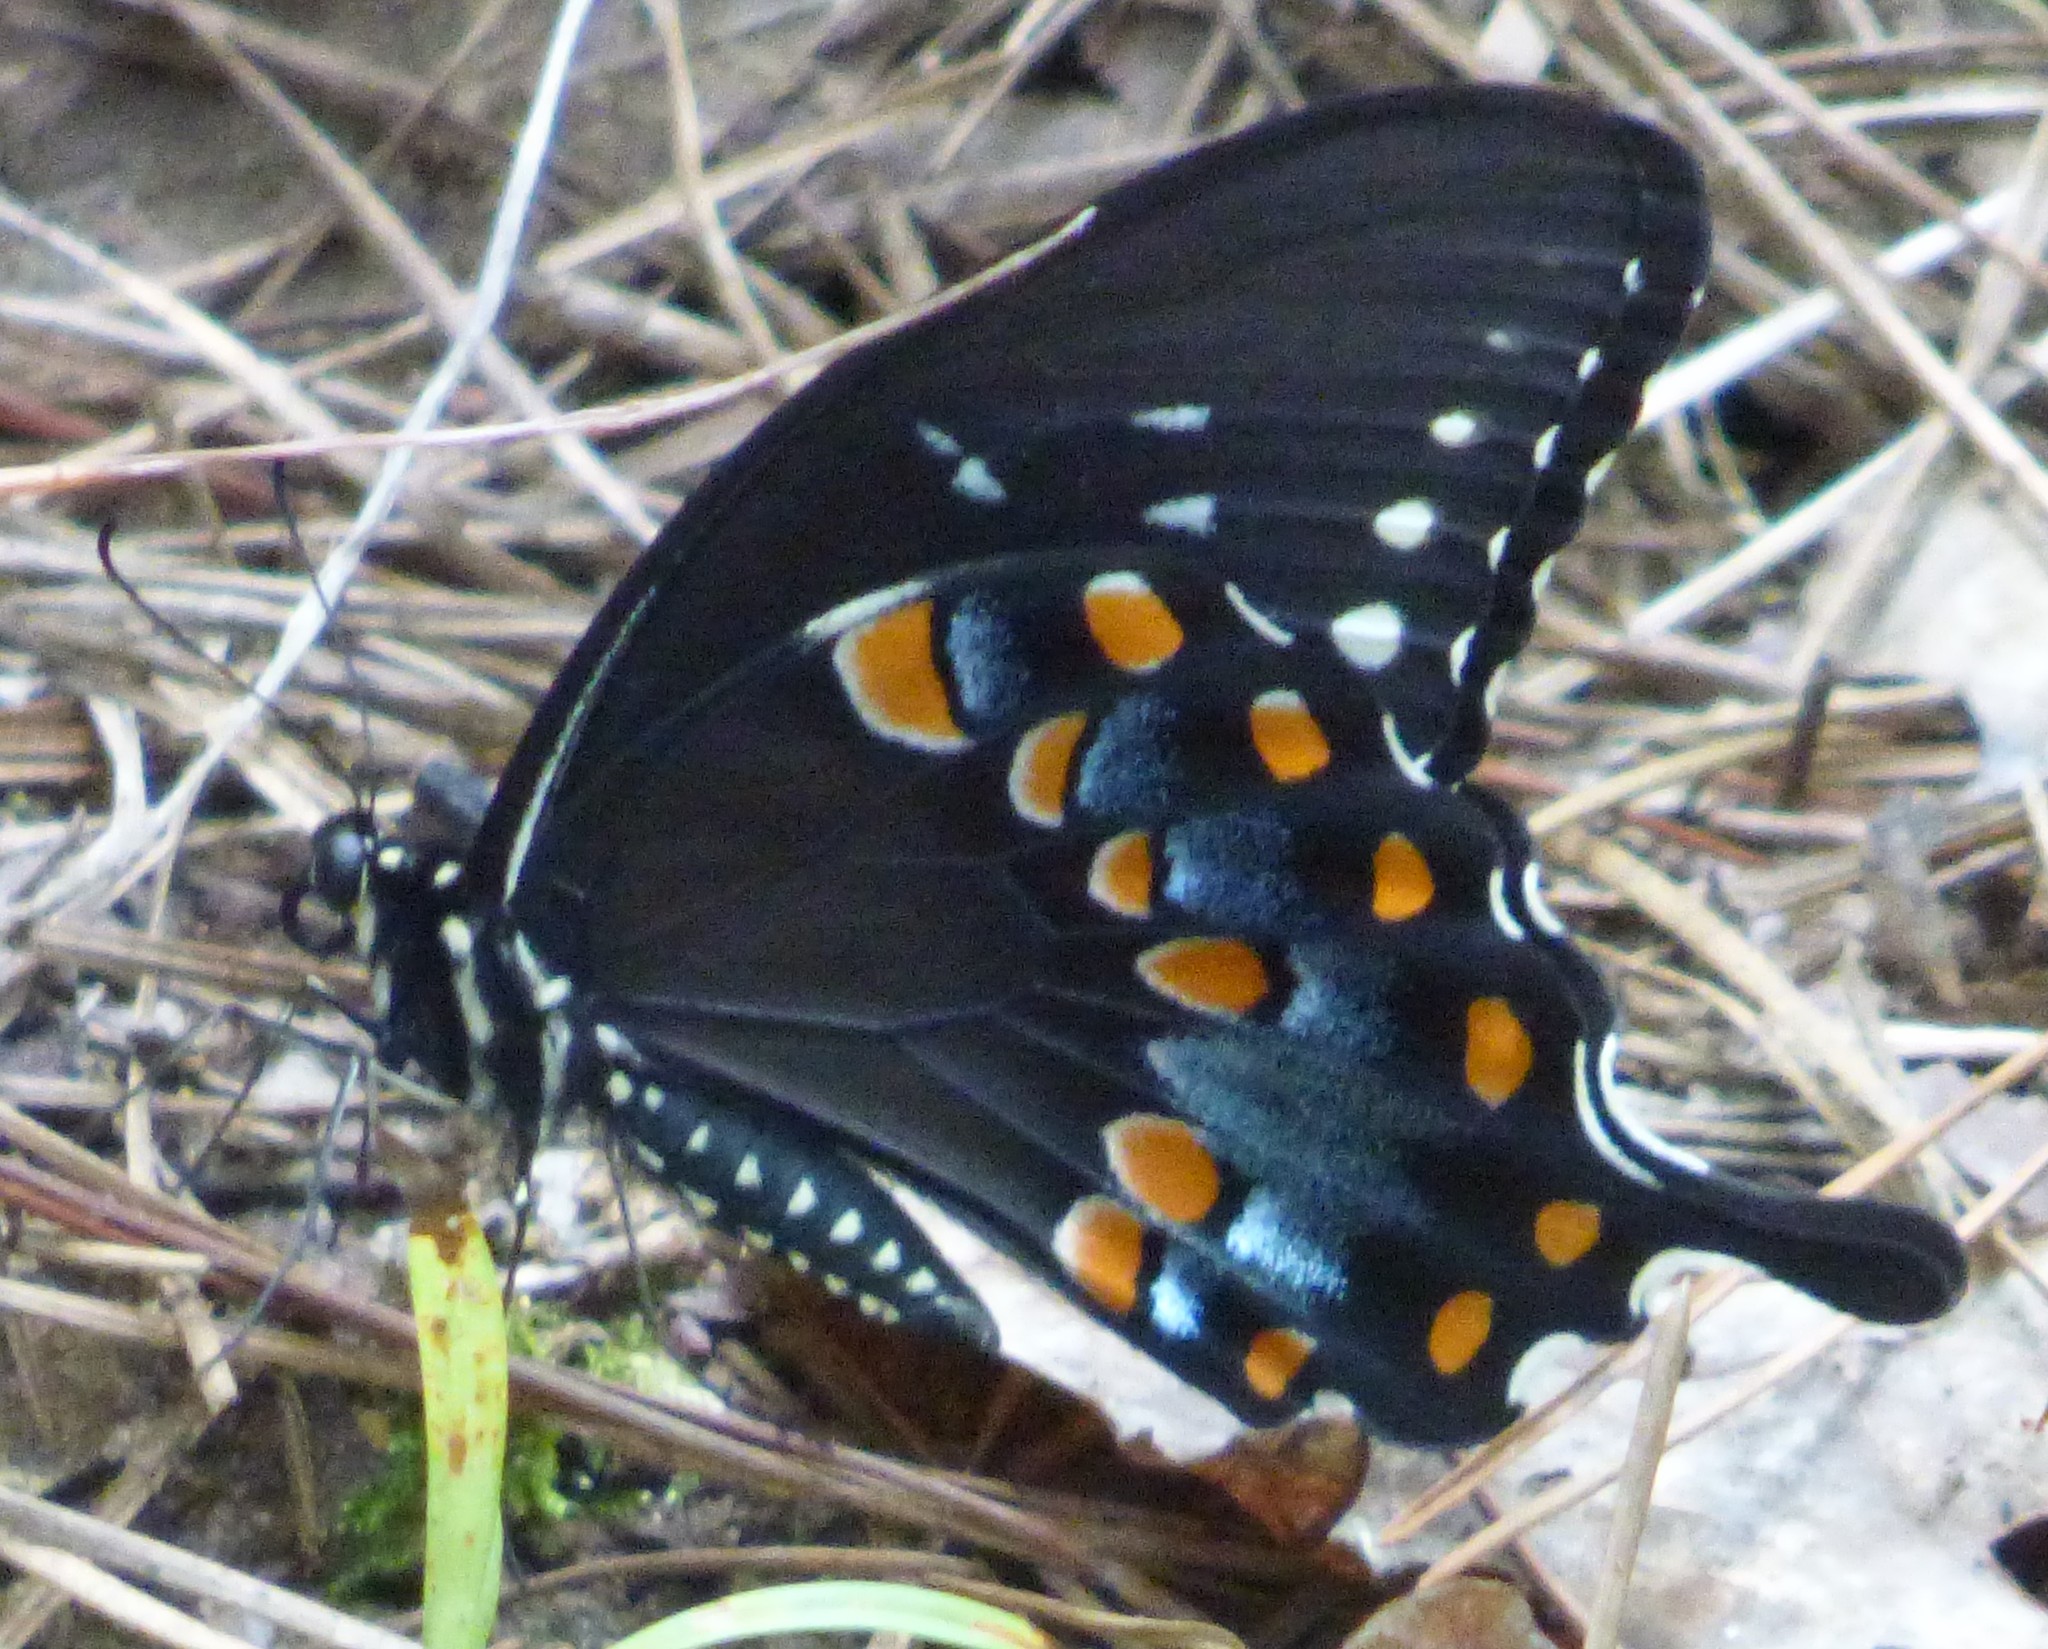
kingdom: Animalia
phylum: Arthropoda
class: Insecta
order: Lepidoptera
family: Papilionidae
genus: Papilio
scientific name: Papilio troilus
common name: Spicebush swallowtail
